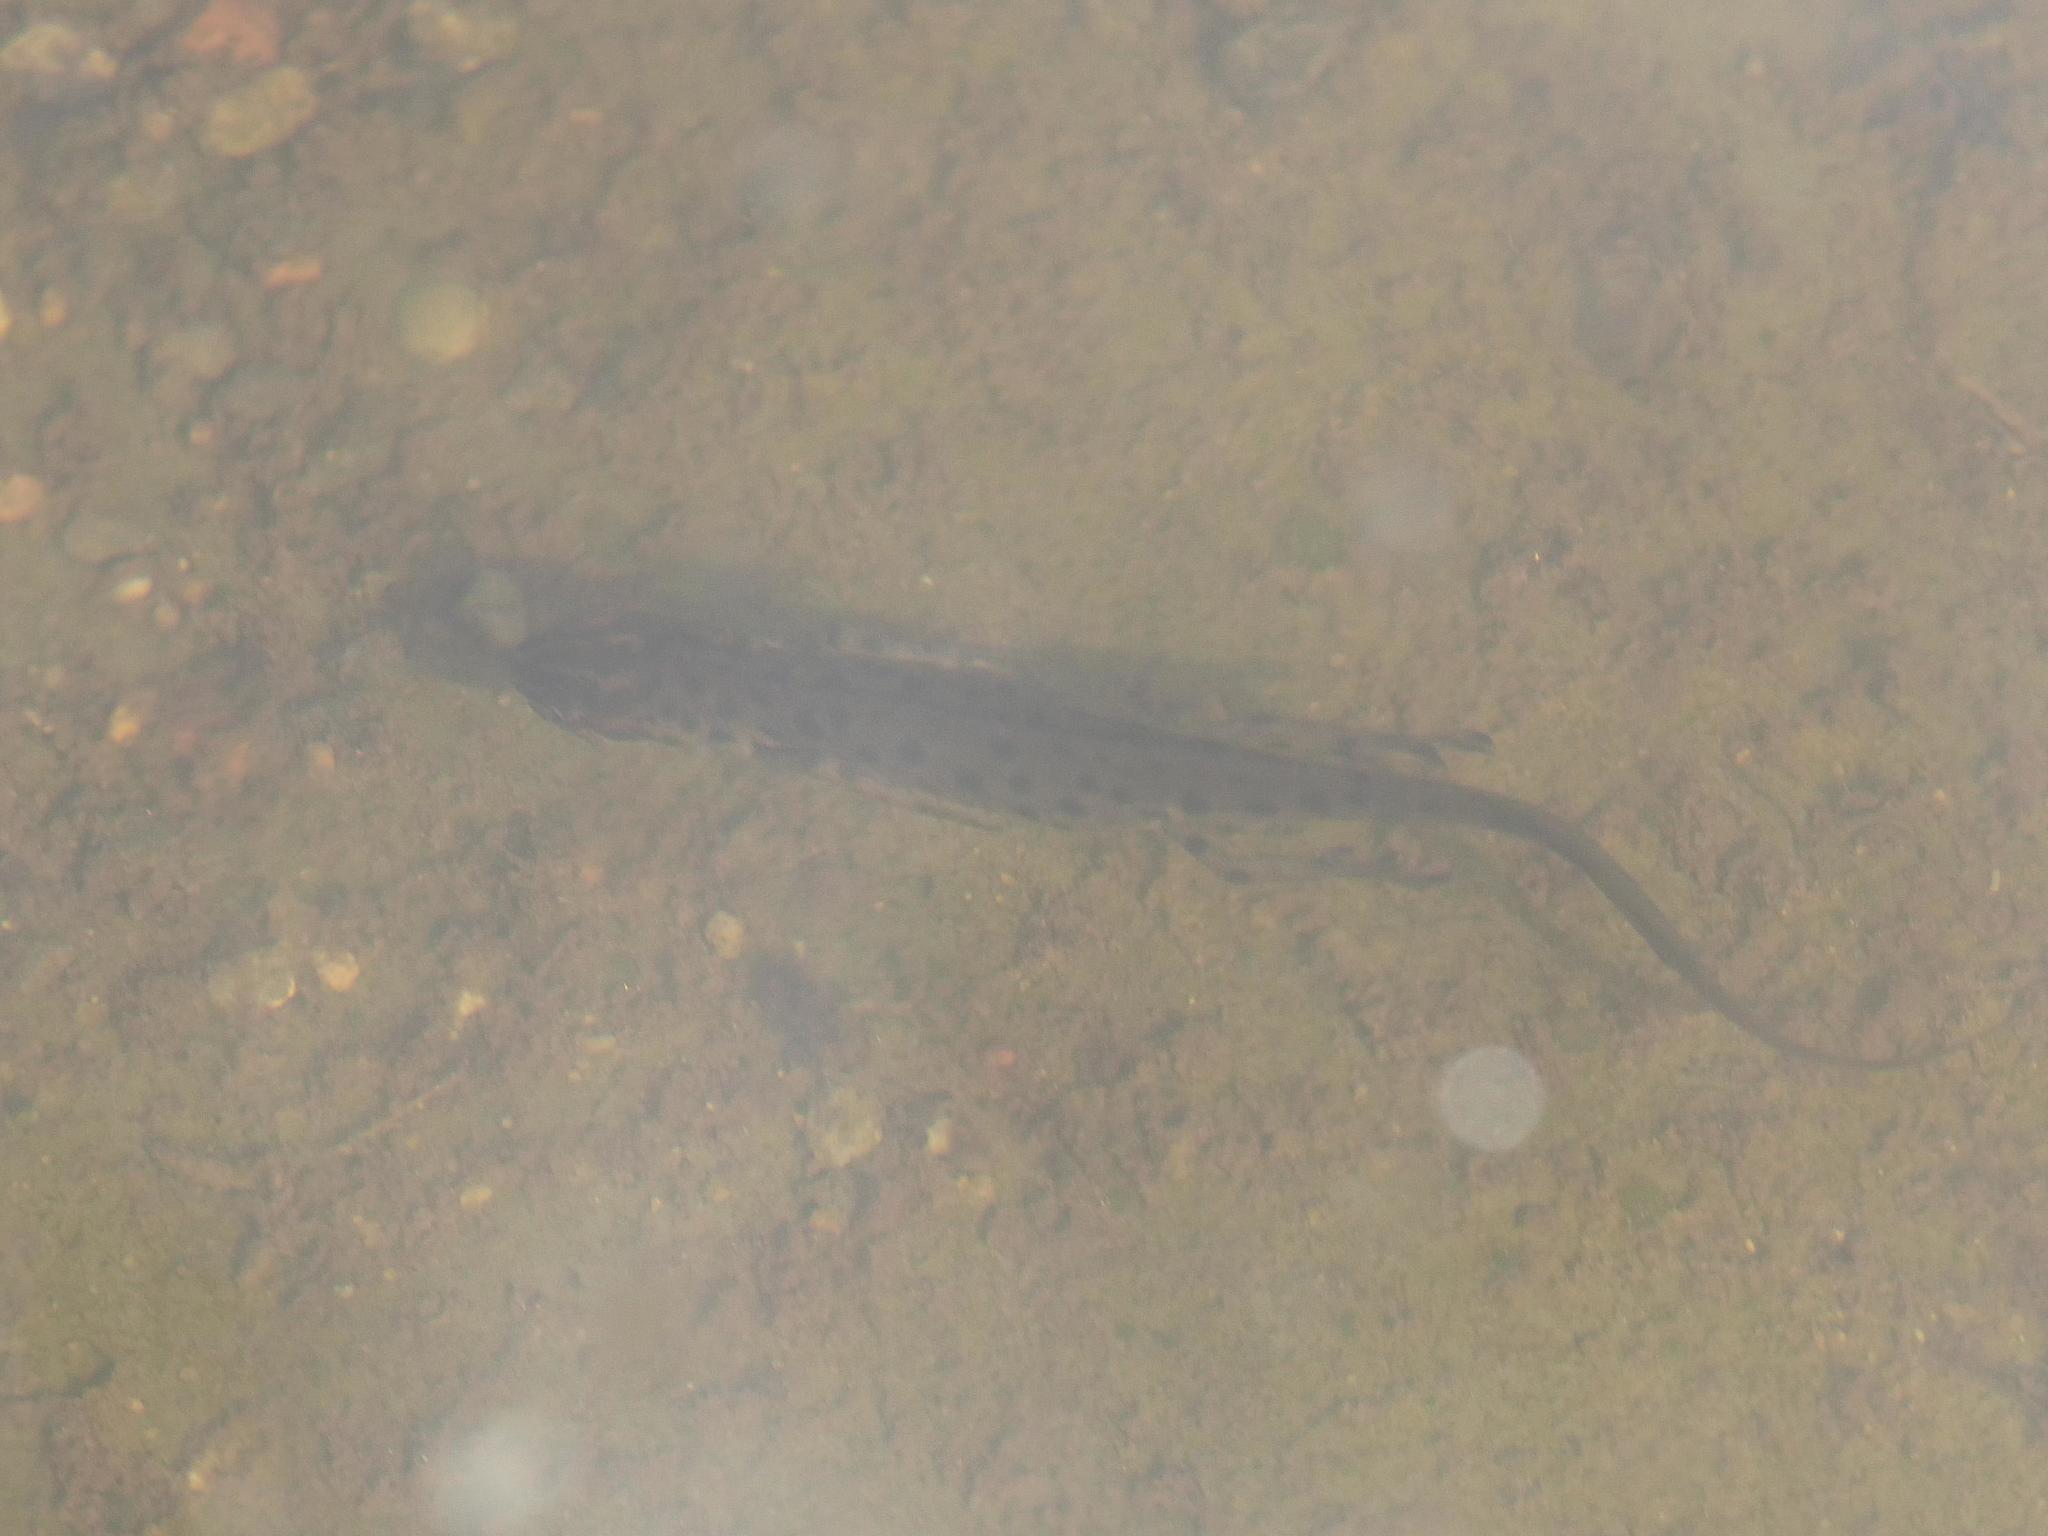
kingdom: Animalia
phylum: Chordata
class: Amphibia
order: Caudata
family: Salamandridae
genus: Lissotriton
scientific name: Lissotriton vulgaris
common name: Smooth newt
